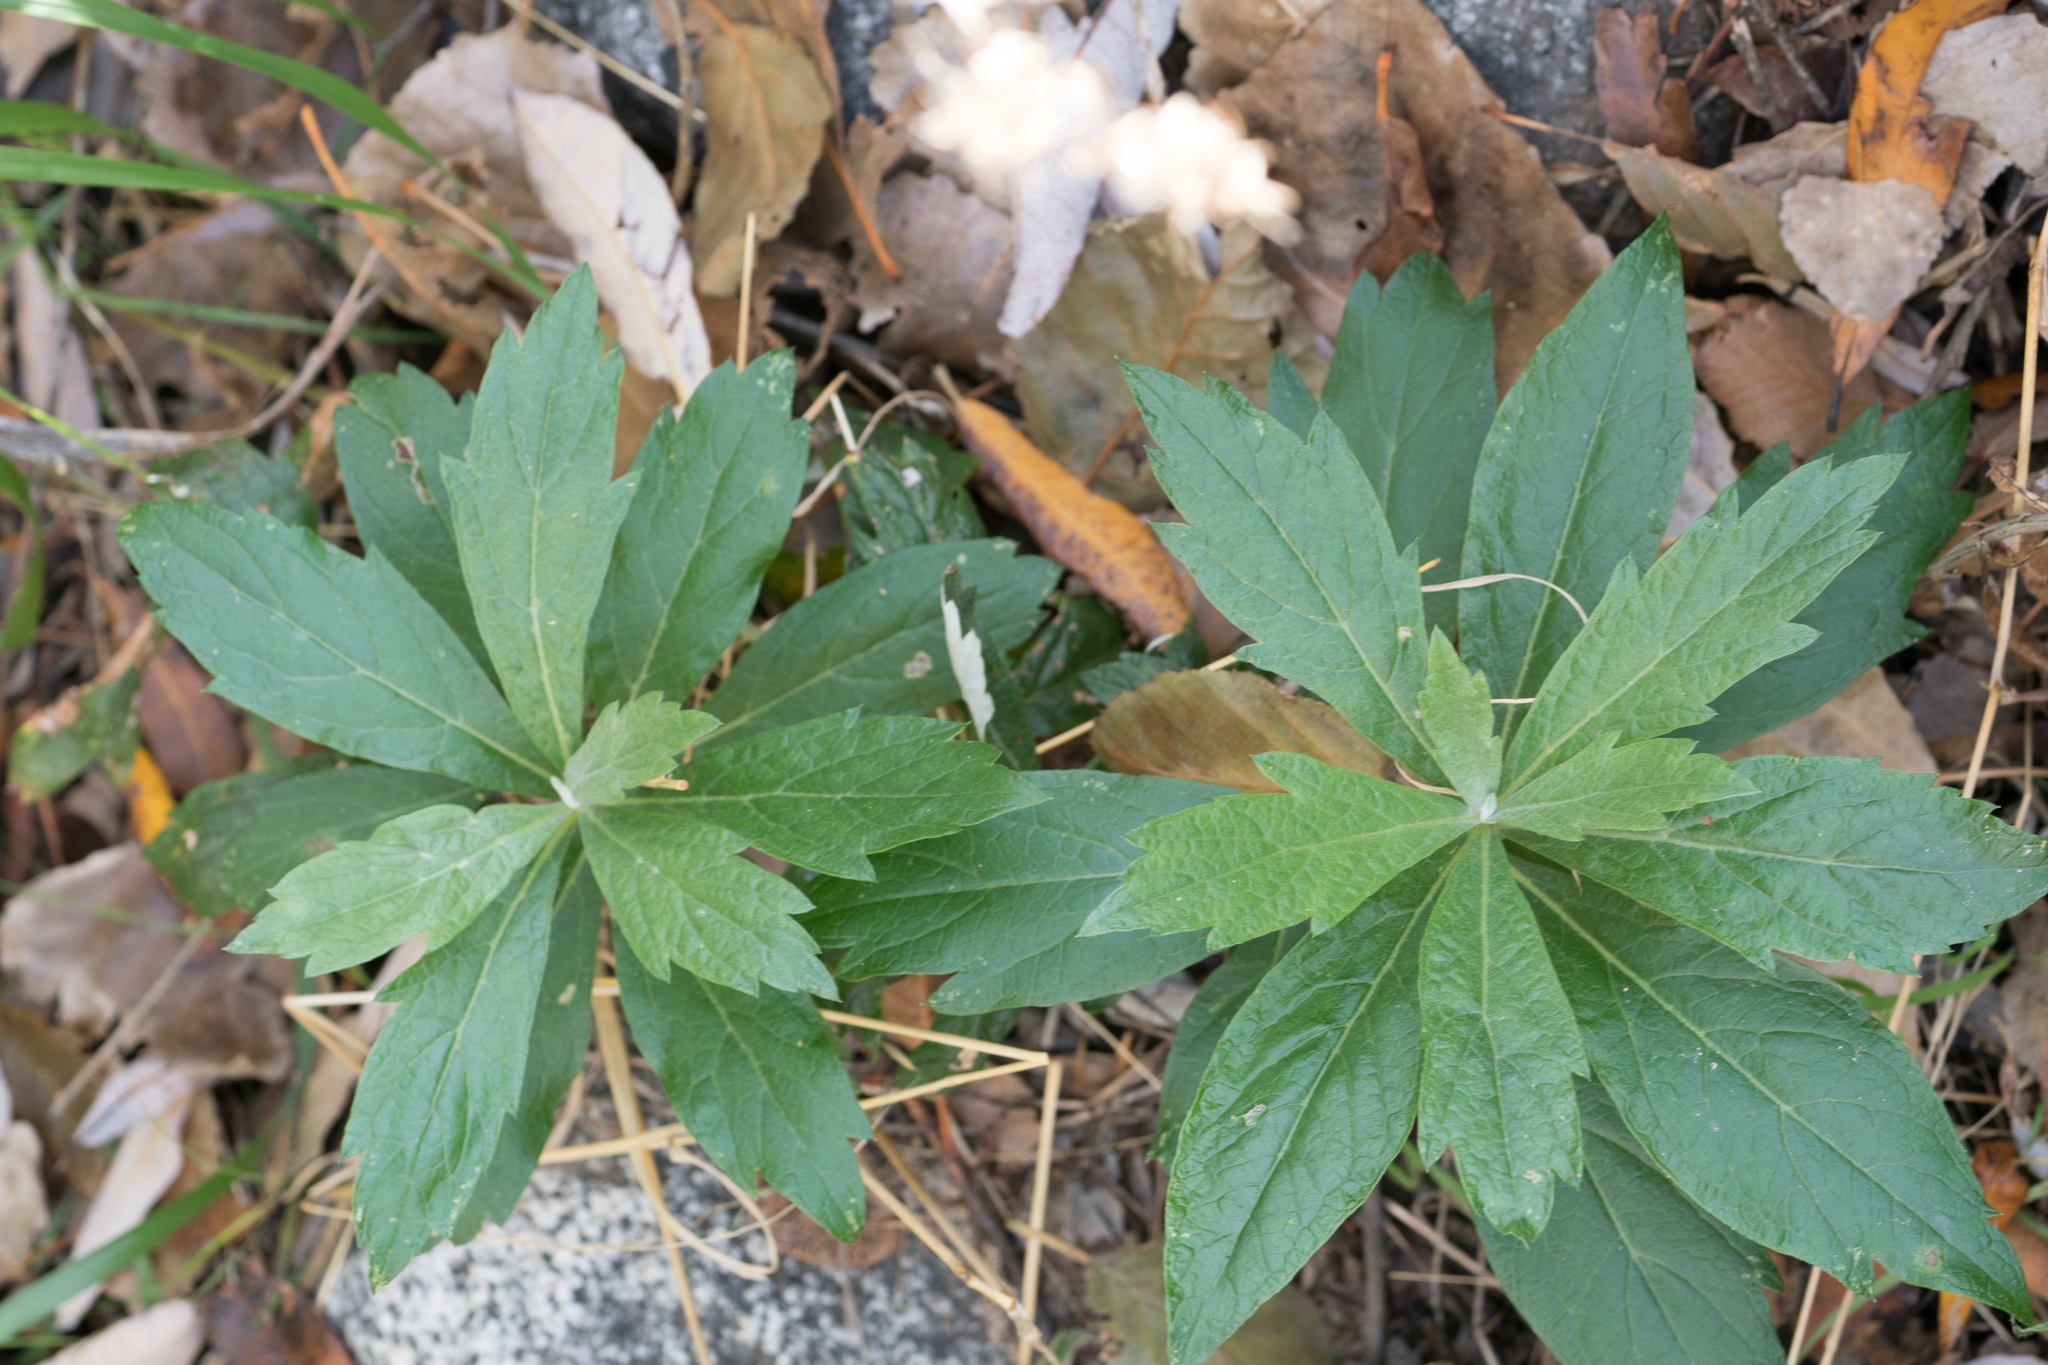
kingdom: Plantae
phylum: Tracheophyta
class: Magnoliopsida
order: Asterales
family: Asteraceae
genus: Artemisia
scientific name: Artemisia douglasiana
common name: Northwest mugwort
